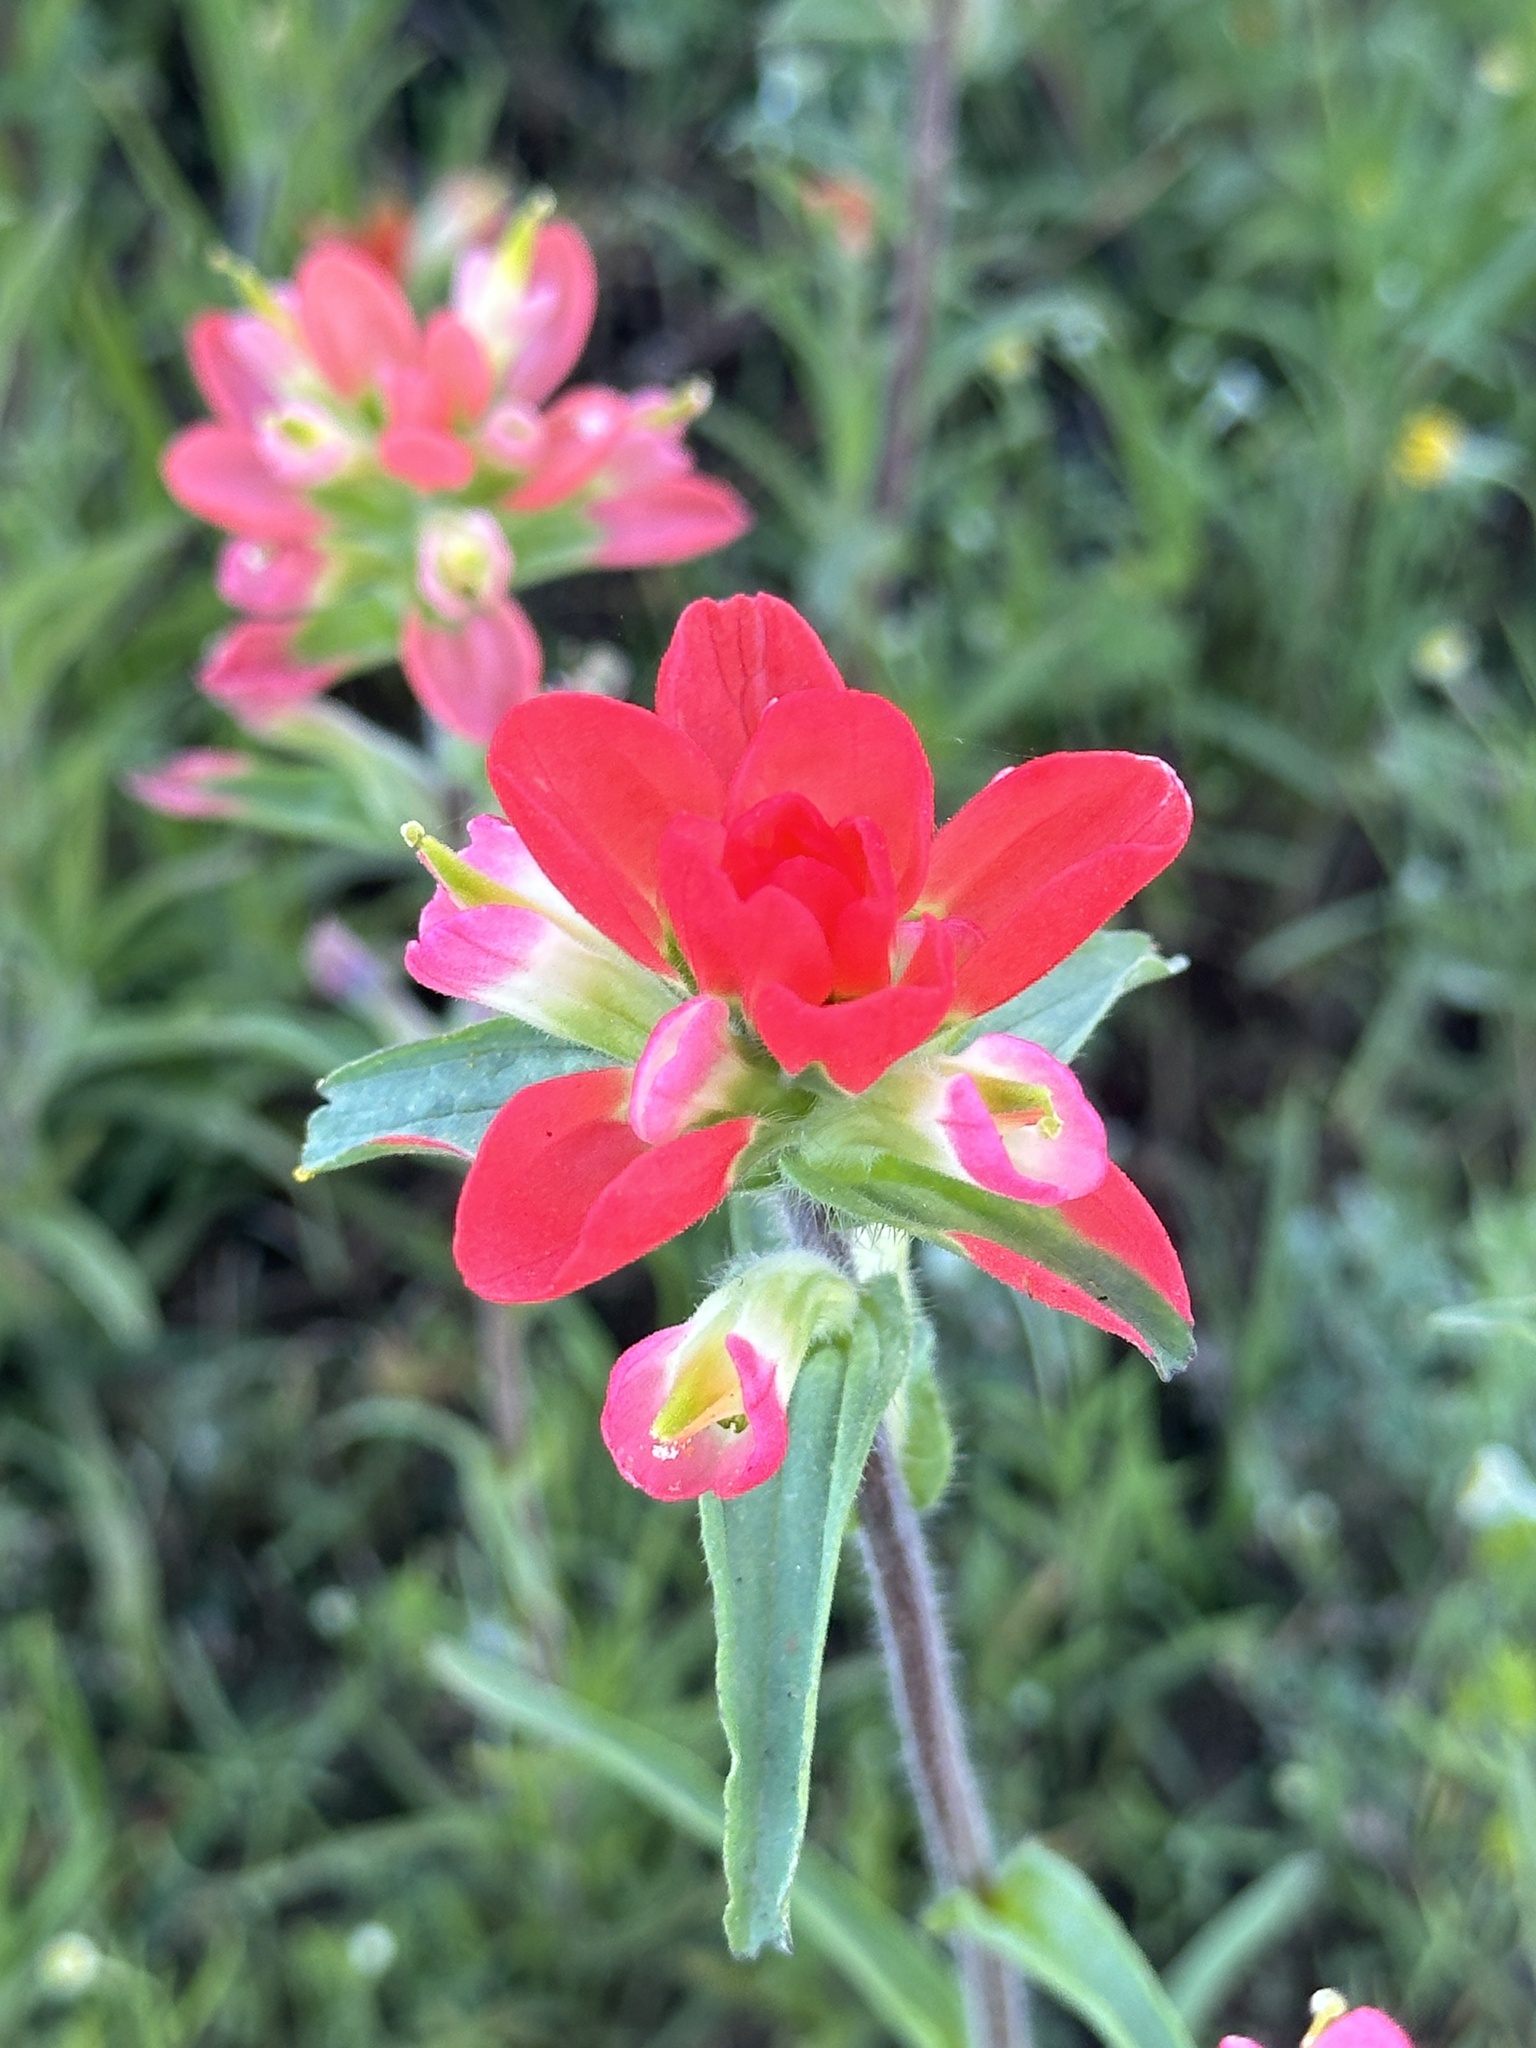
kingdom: Plantae
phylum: Tracheophyta
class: Magnoliopsida
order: Lamiales
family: Orobanchaceae
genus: Castilleja
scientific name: Castilleja indivisa
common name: Texas paintbrush
